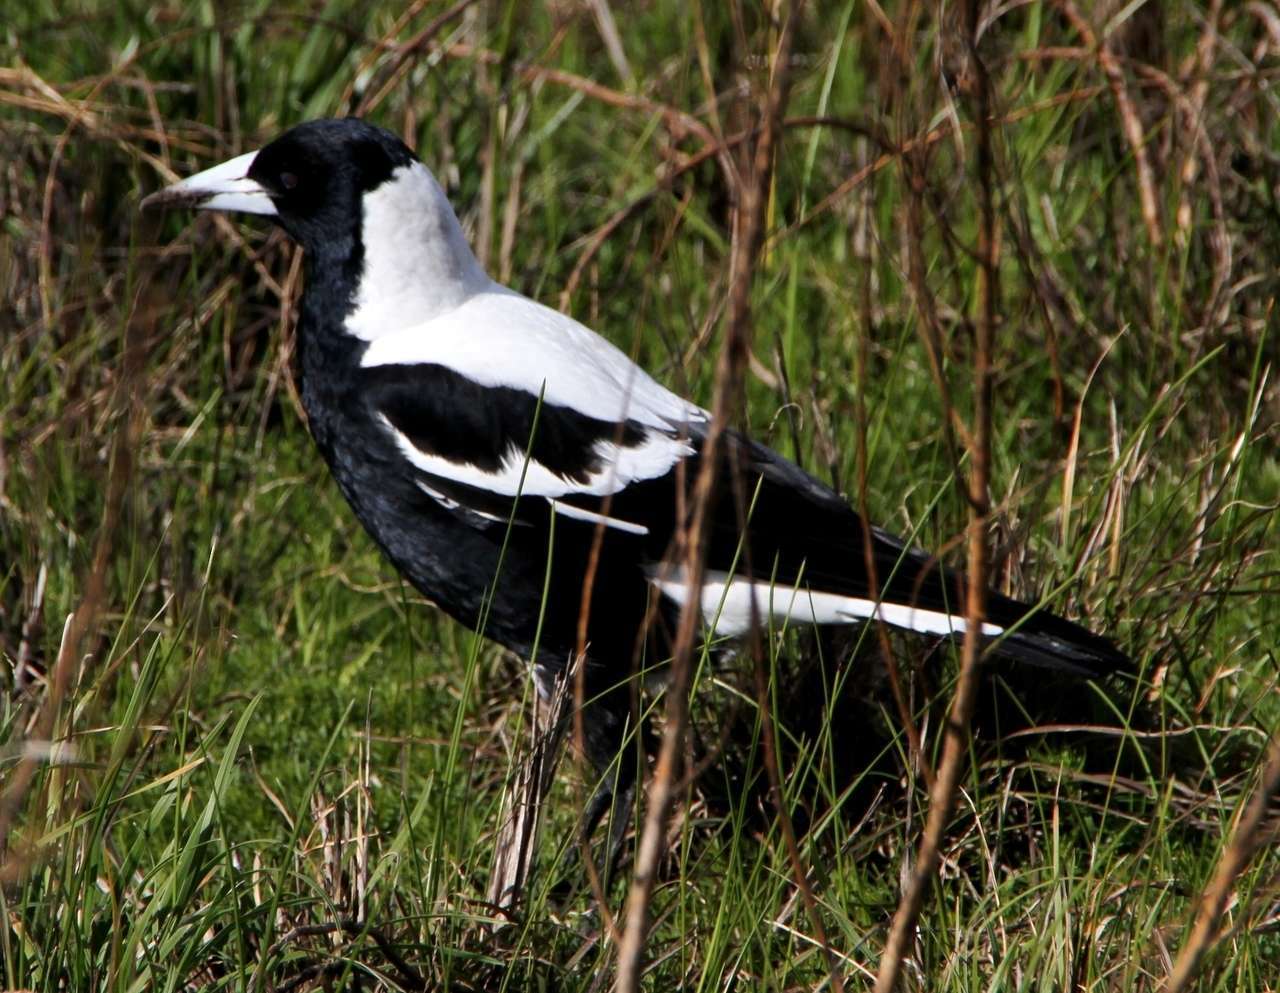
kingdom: Animalia
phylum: Chordata
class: Aves
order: Passeriformes
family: Cracticidae
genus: Gymnorhina
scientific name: Gymnorhina tibicen
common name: Australian magpie
